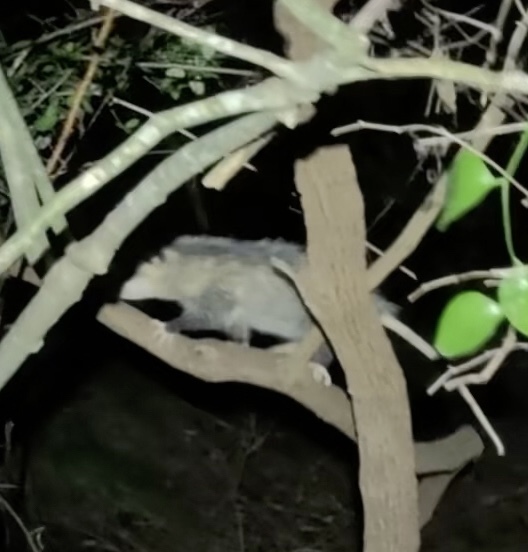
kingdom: Animalia
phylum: Chordata
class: Mammalia
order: Didelphimorphia
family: Didelphidae
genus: Didelphis
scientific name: Didelphis virginiana
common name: Virginia opossum
